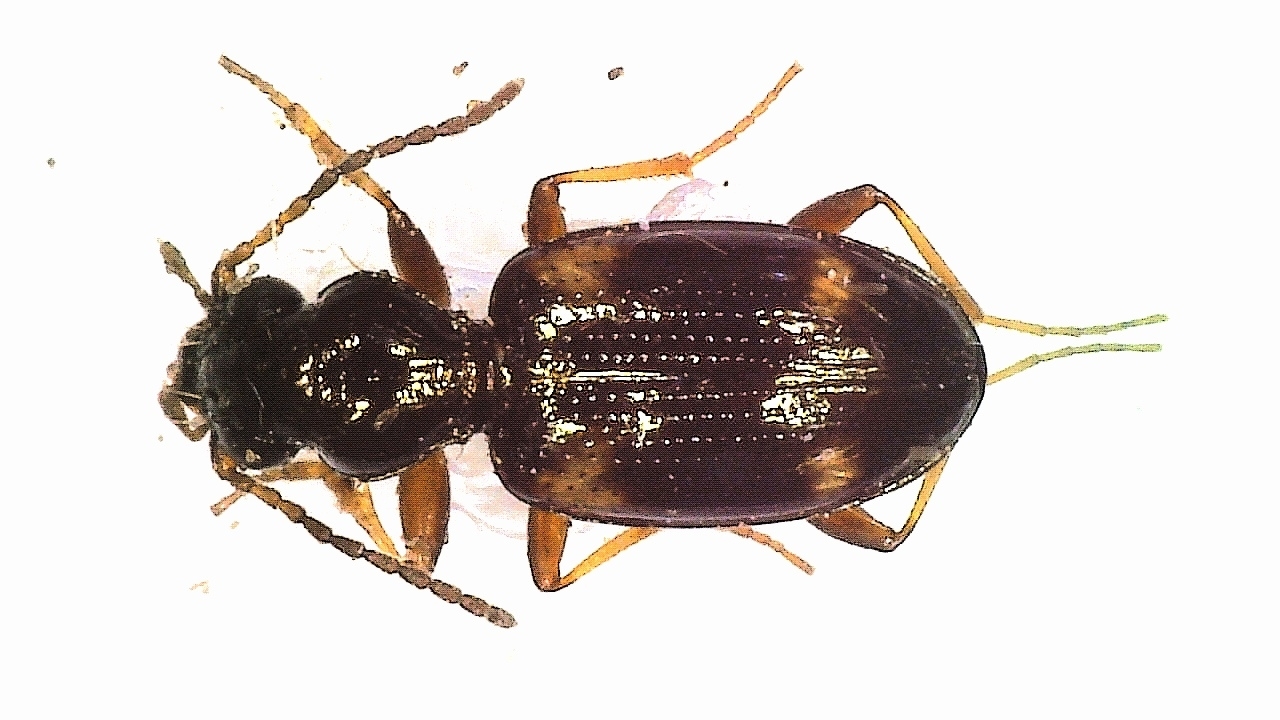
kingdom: Animalia
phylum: Arthropoda
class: Insecta
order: Coleoptera
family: Carabidae
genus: Bembidion
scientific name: Bembidion quadrimaculatum
